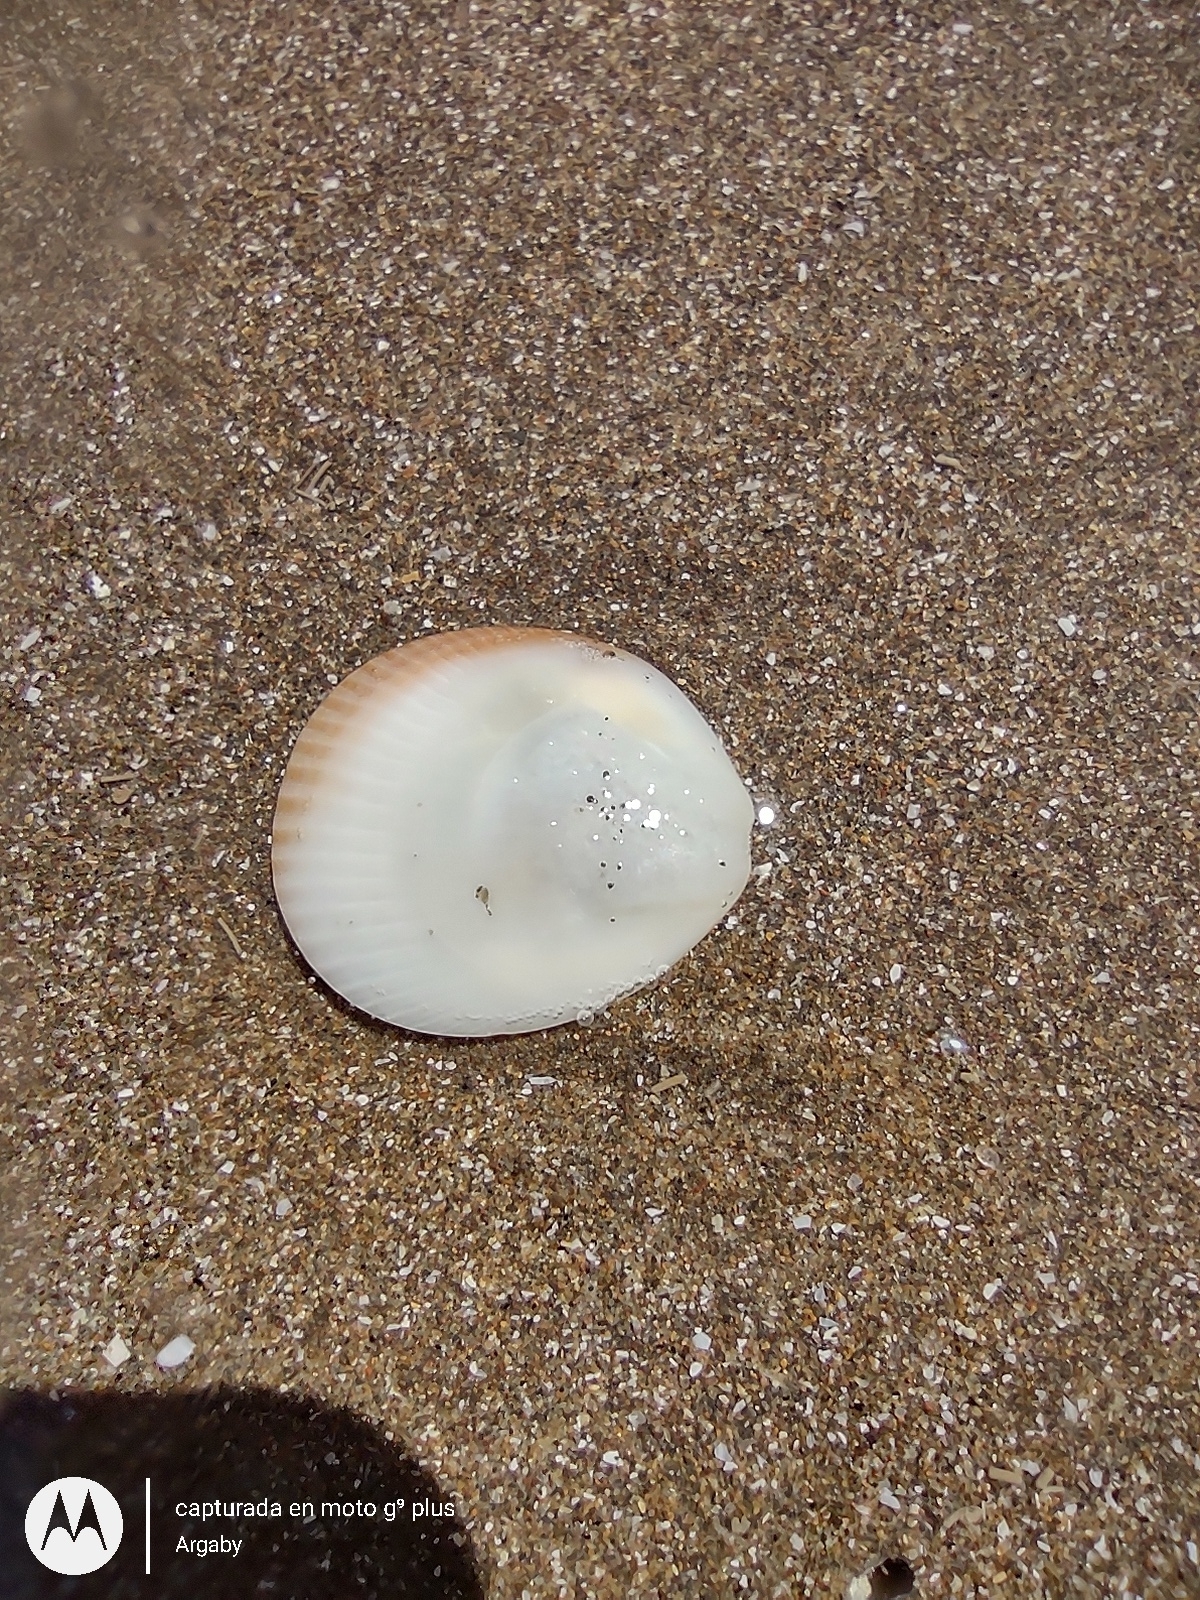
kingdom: Animalia
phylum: Mollusca
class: Bivalvia
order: Arcida
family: Glycymerididae
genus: Glycymeris
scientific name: Glycymeris longior
